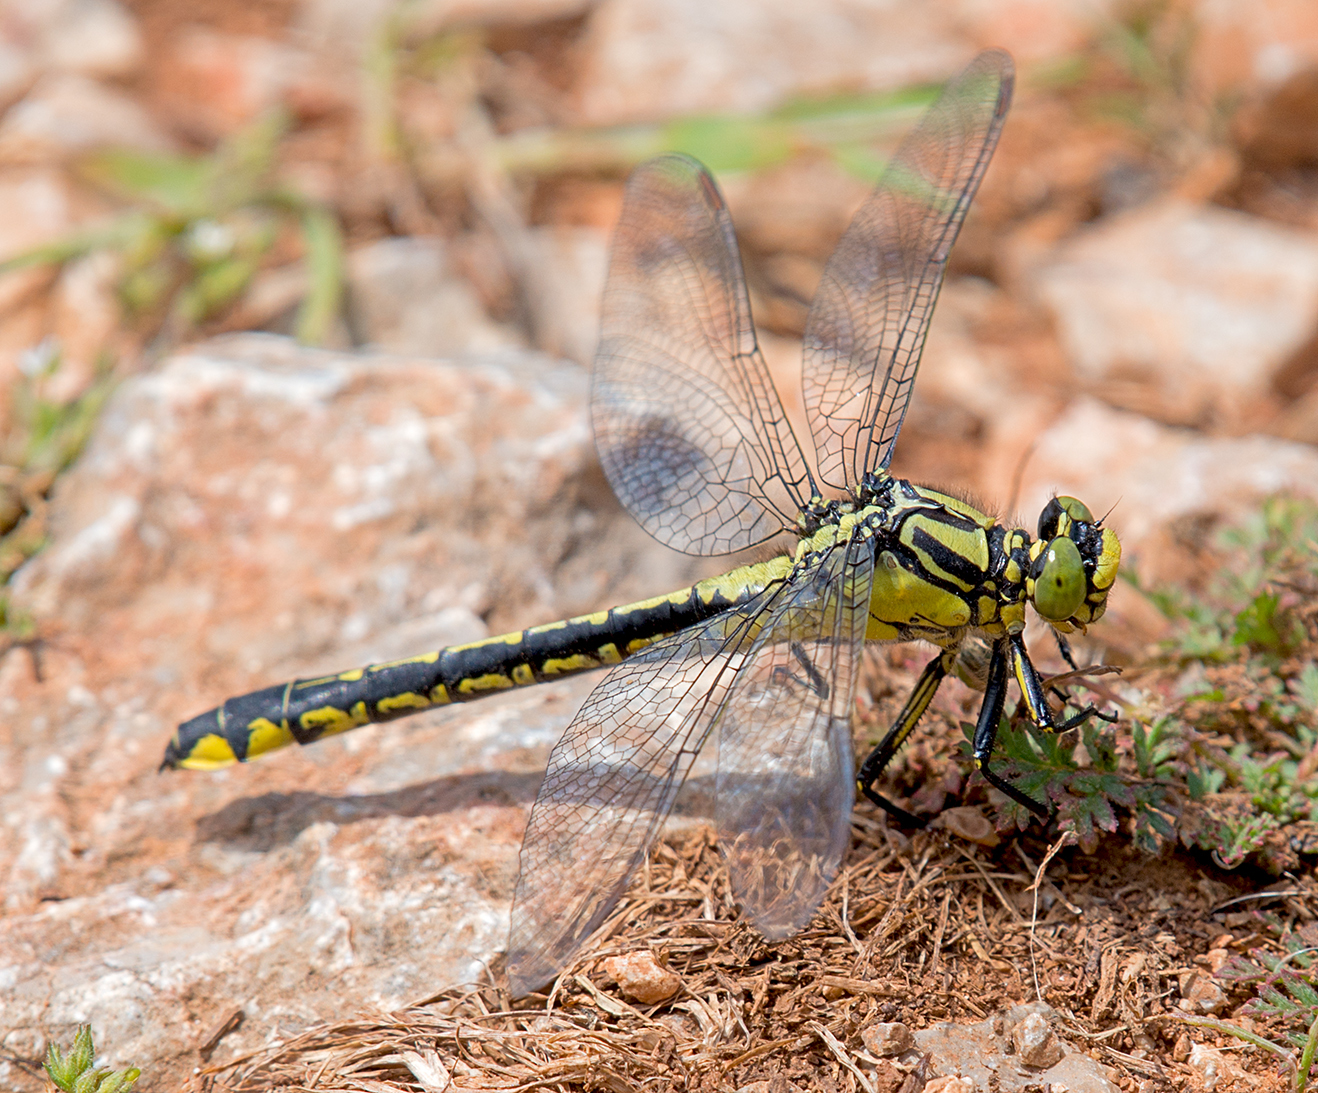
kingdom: Animalia
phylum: Arthropoda
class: Insecta
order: Odonata
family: Gomphidae
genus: Gomphus
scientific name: Gomphus vulgatissimus
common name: Club-tailed dragonfly
